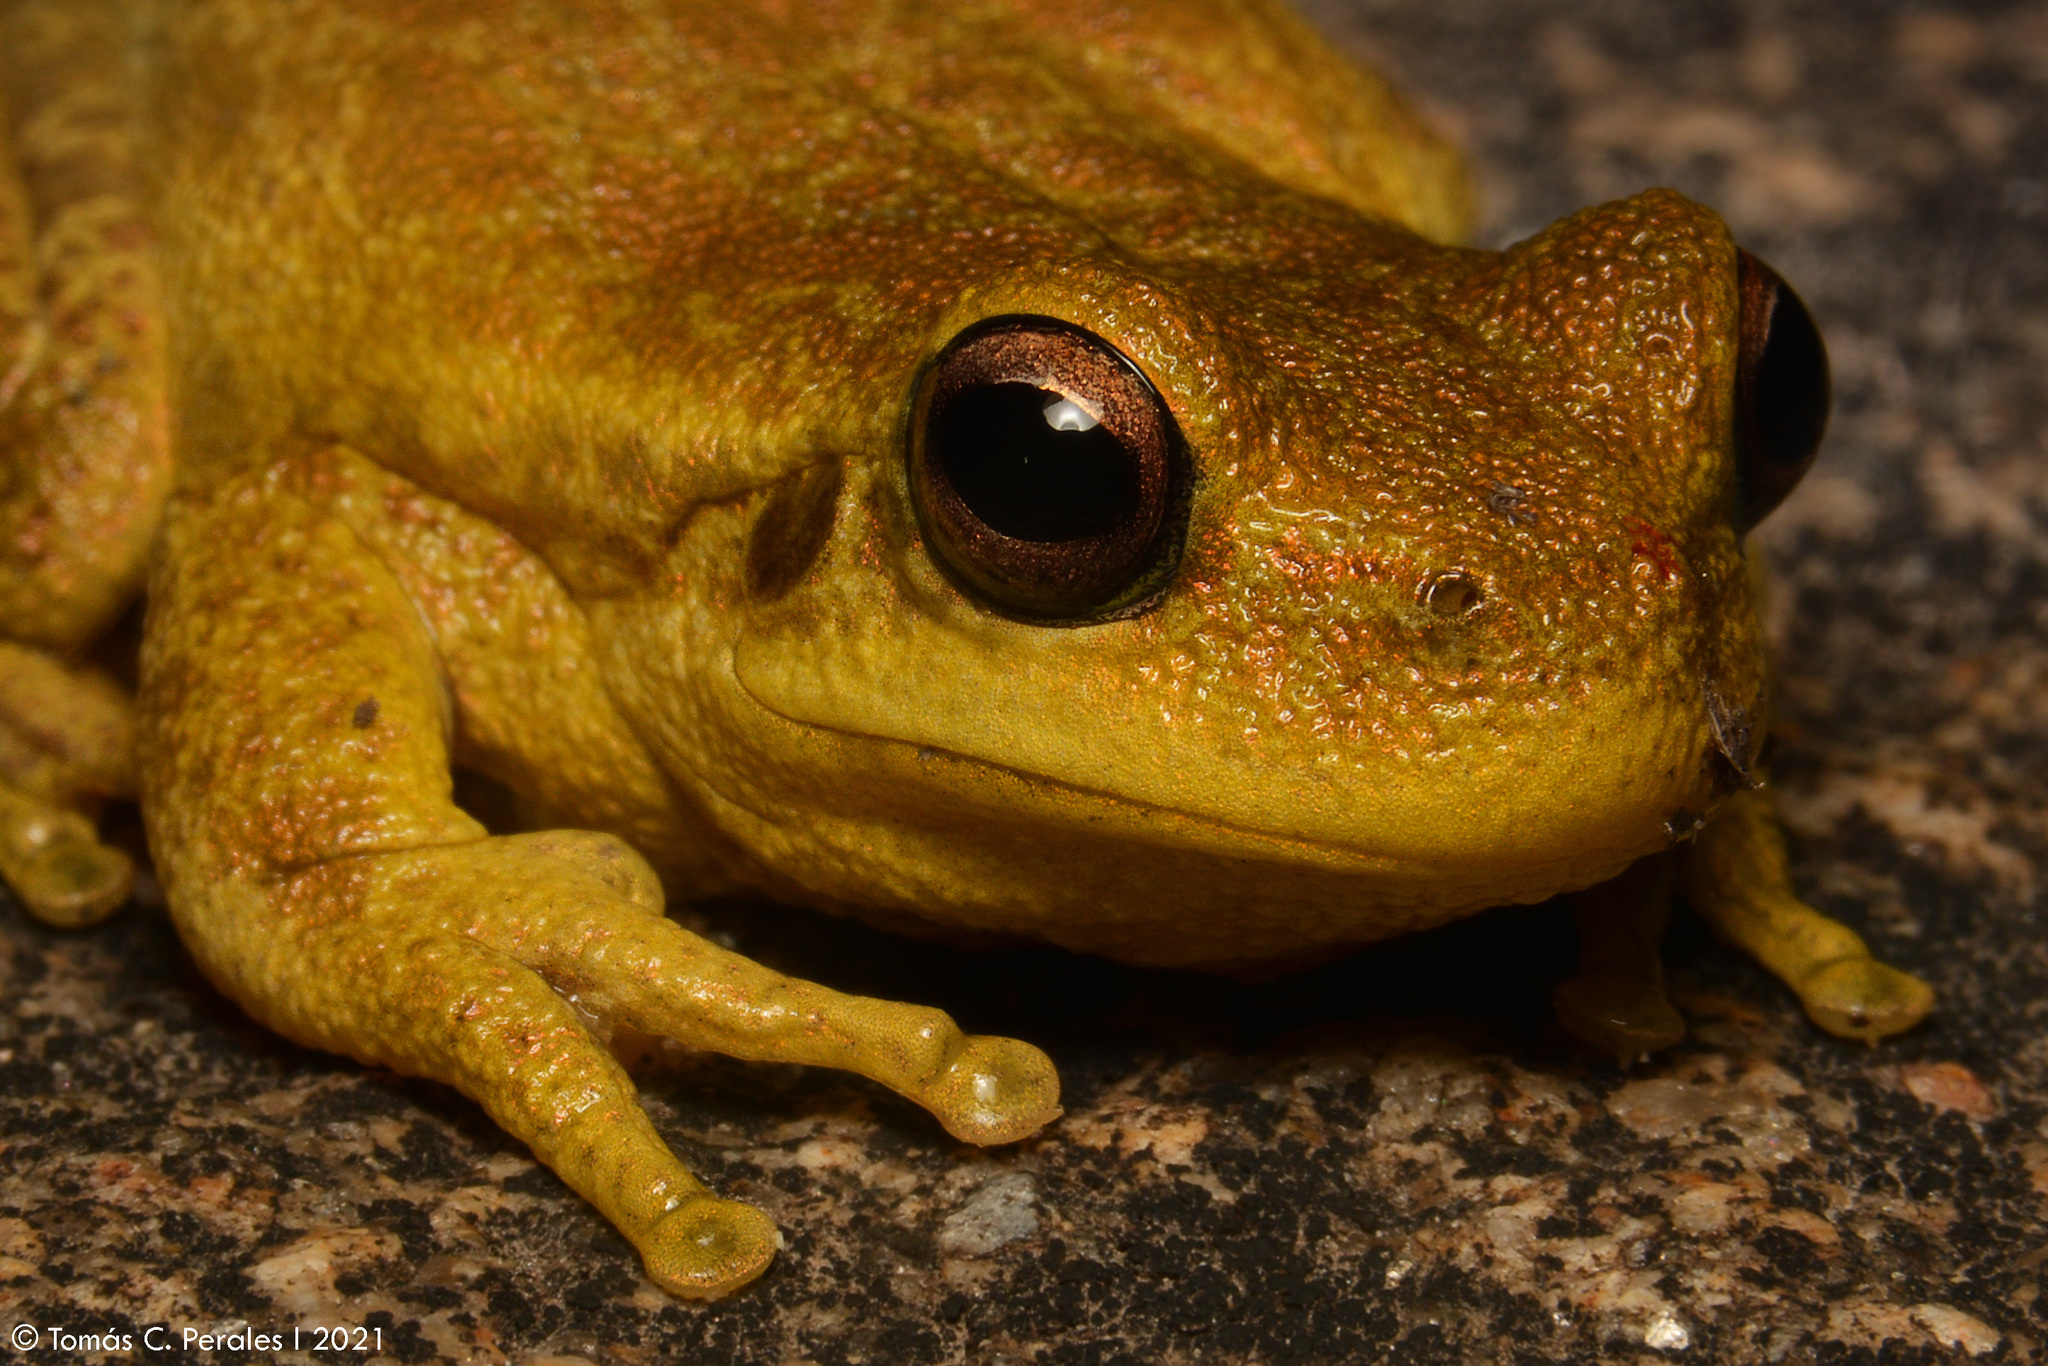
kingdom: Animalia
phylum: Chordata
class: Amphibia
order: Anura
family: Hylidae
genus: Boana
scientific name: Boana cordobae
